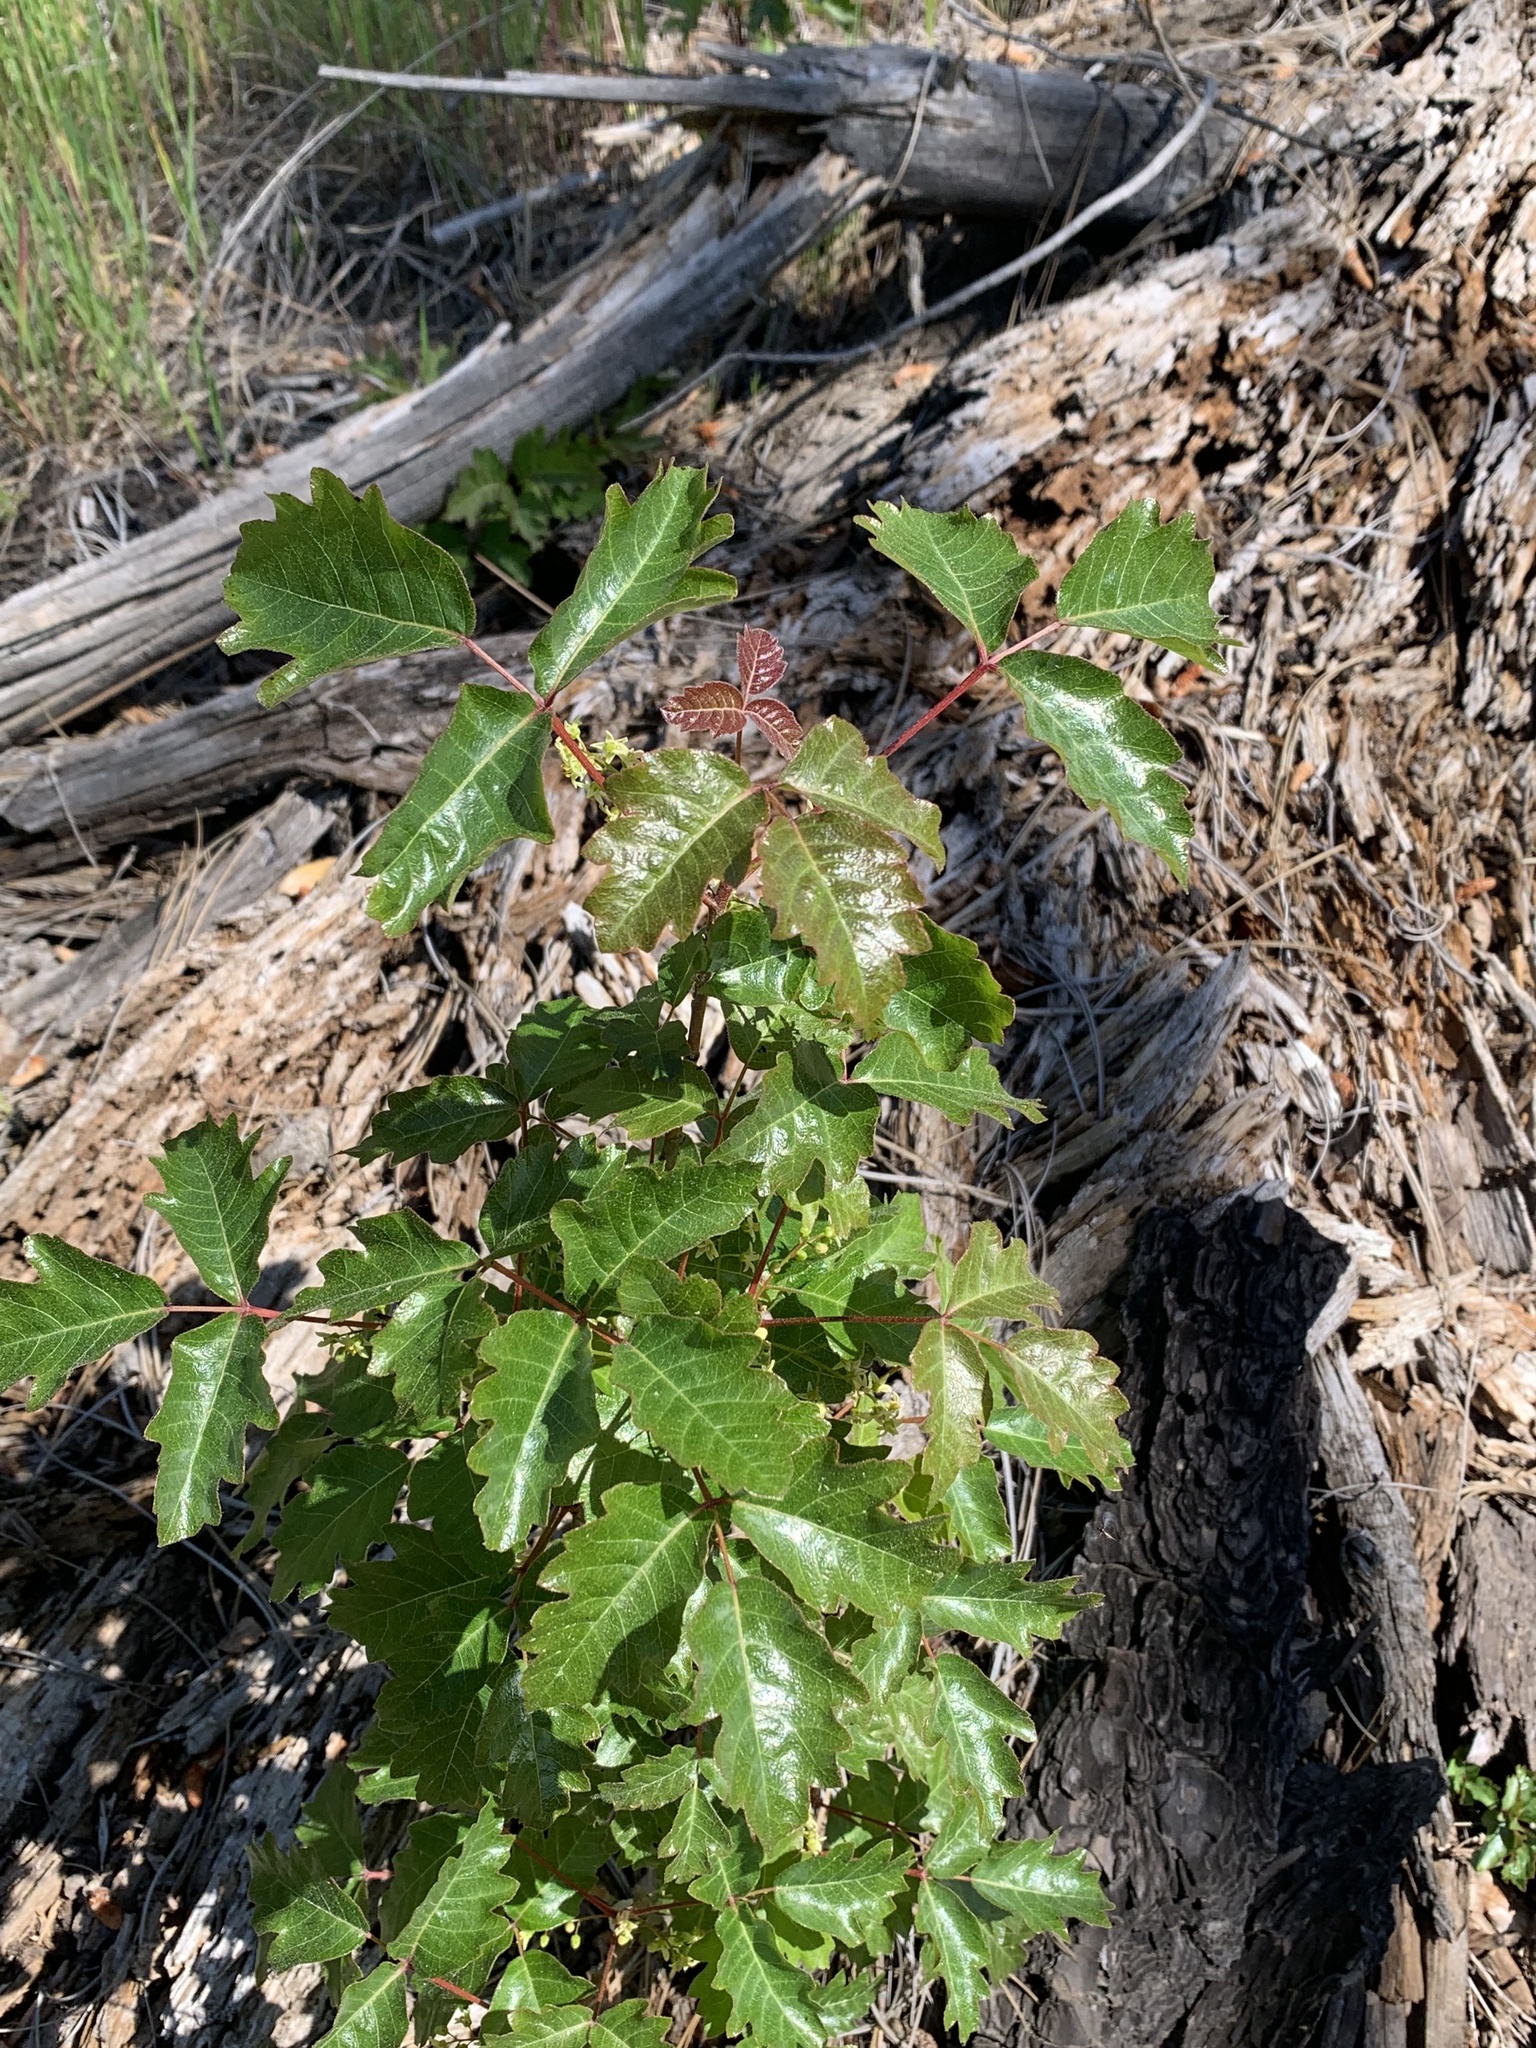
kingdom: Plantae
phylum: Tracheophyta
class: Magnoliopsida
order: Sapindales
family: Anacardiaceae
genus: Toxicodendron
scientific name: Toxicodendron diversilobum
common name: Pacific poison-oak
